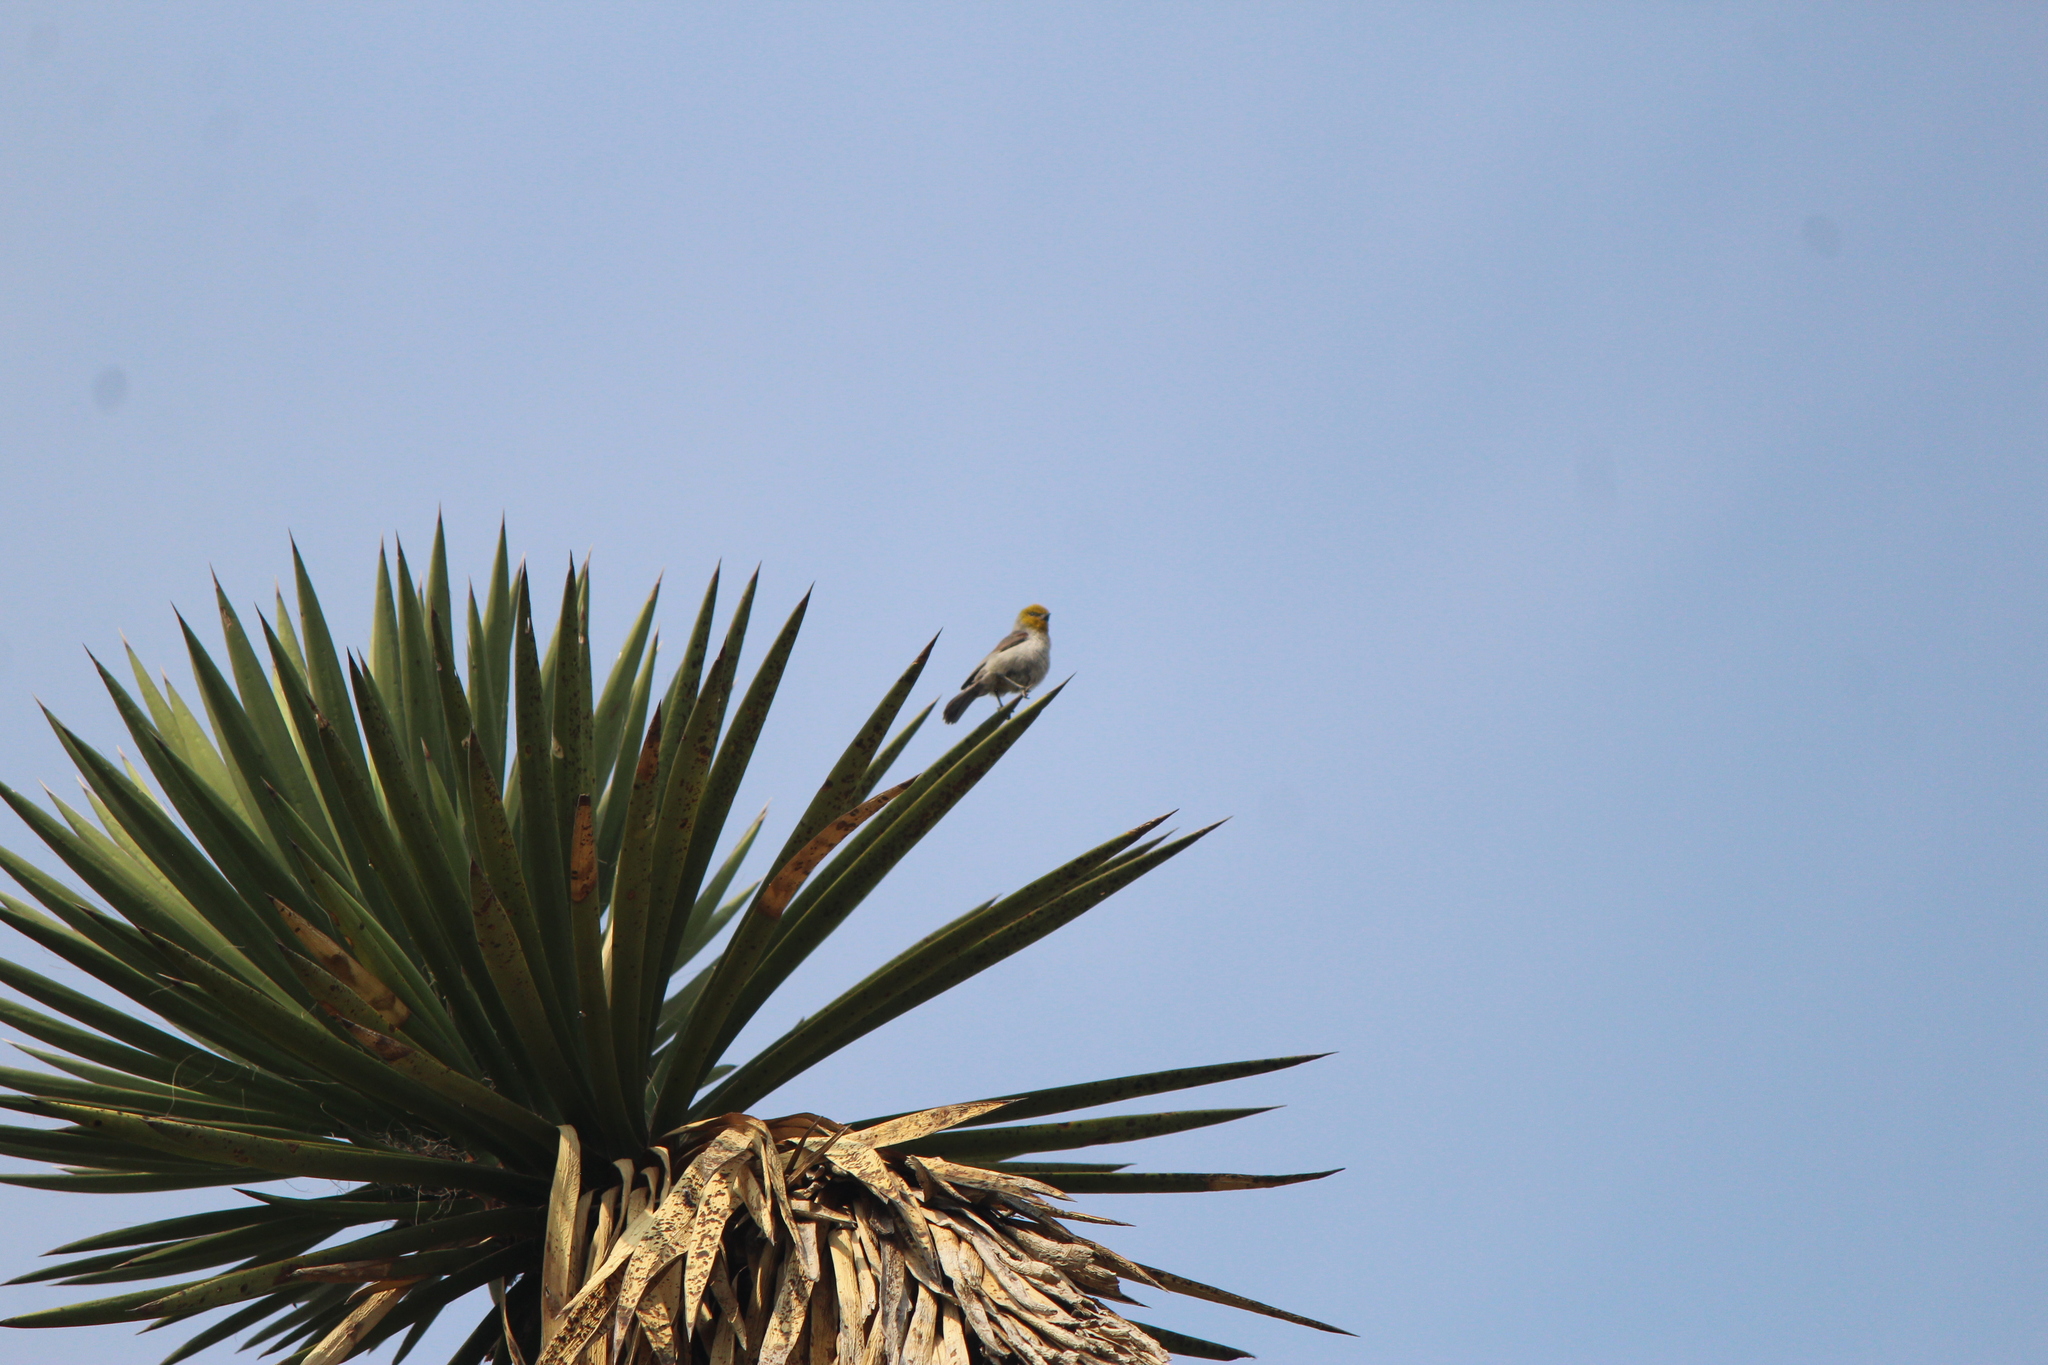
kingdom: Animalia
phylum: Chordata
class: Aves
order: Passeriformes
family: Remizidae
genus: Auriparus
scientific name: Auriparus flaviceps
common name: Verdin
